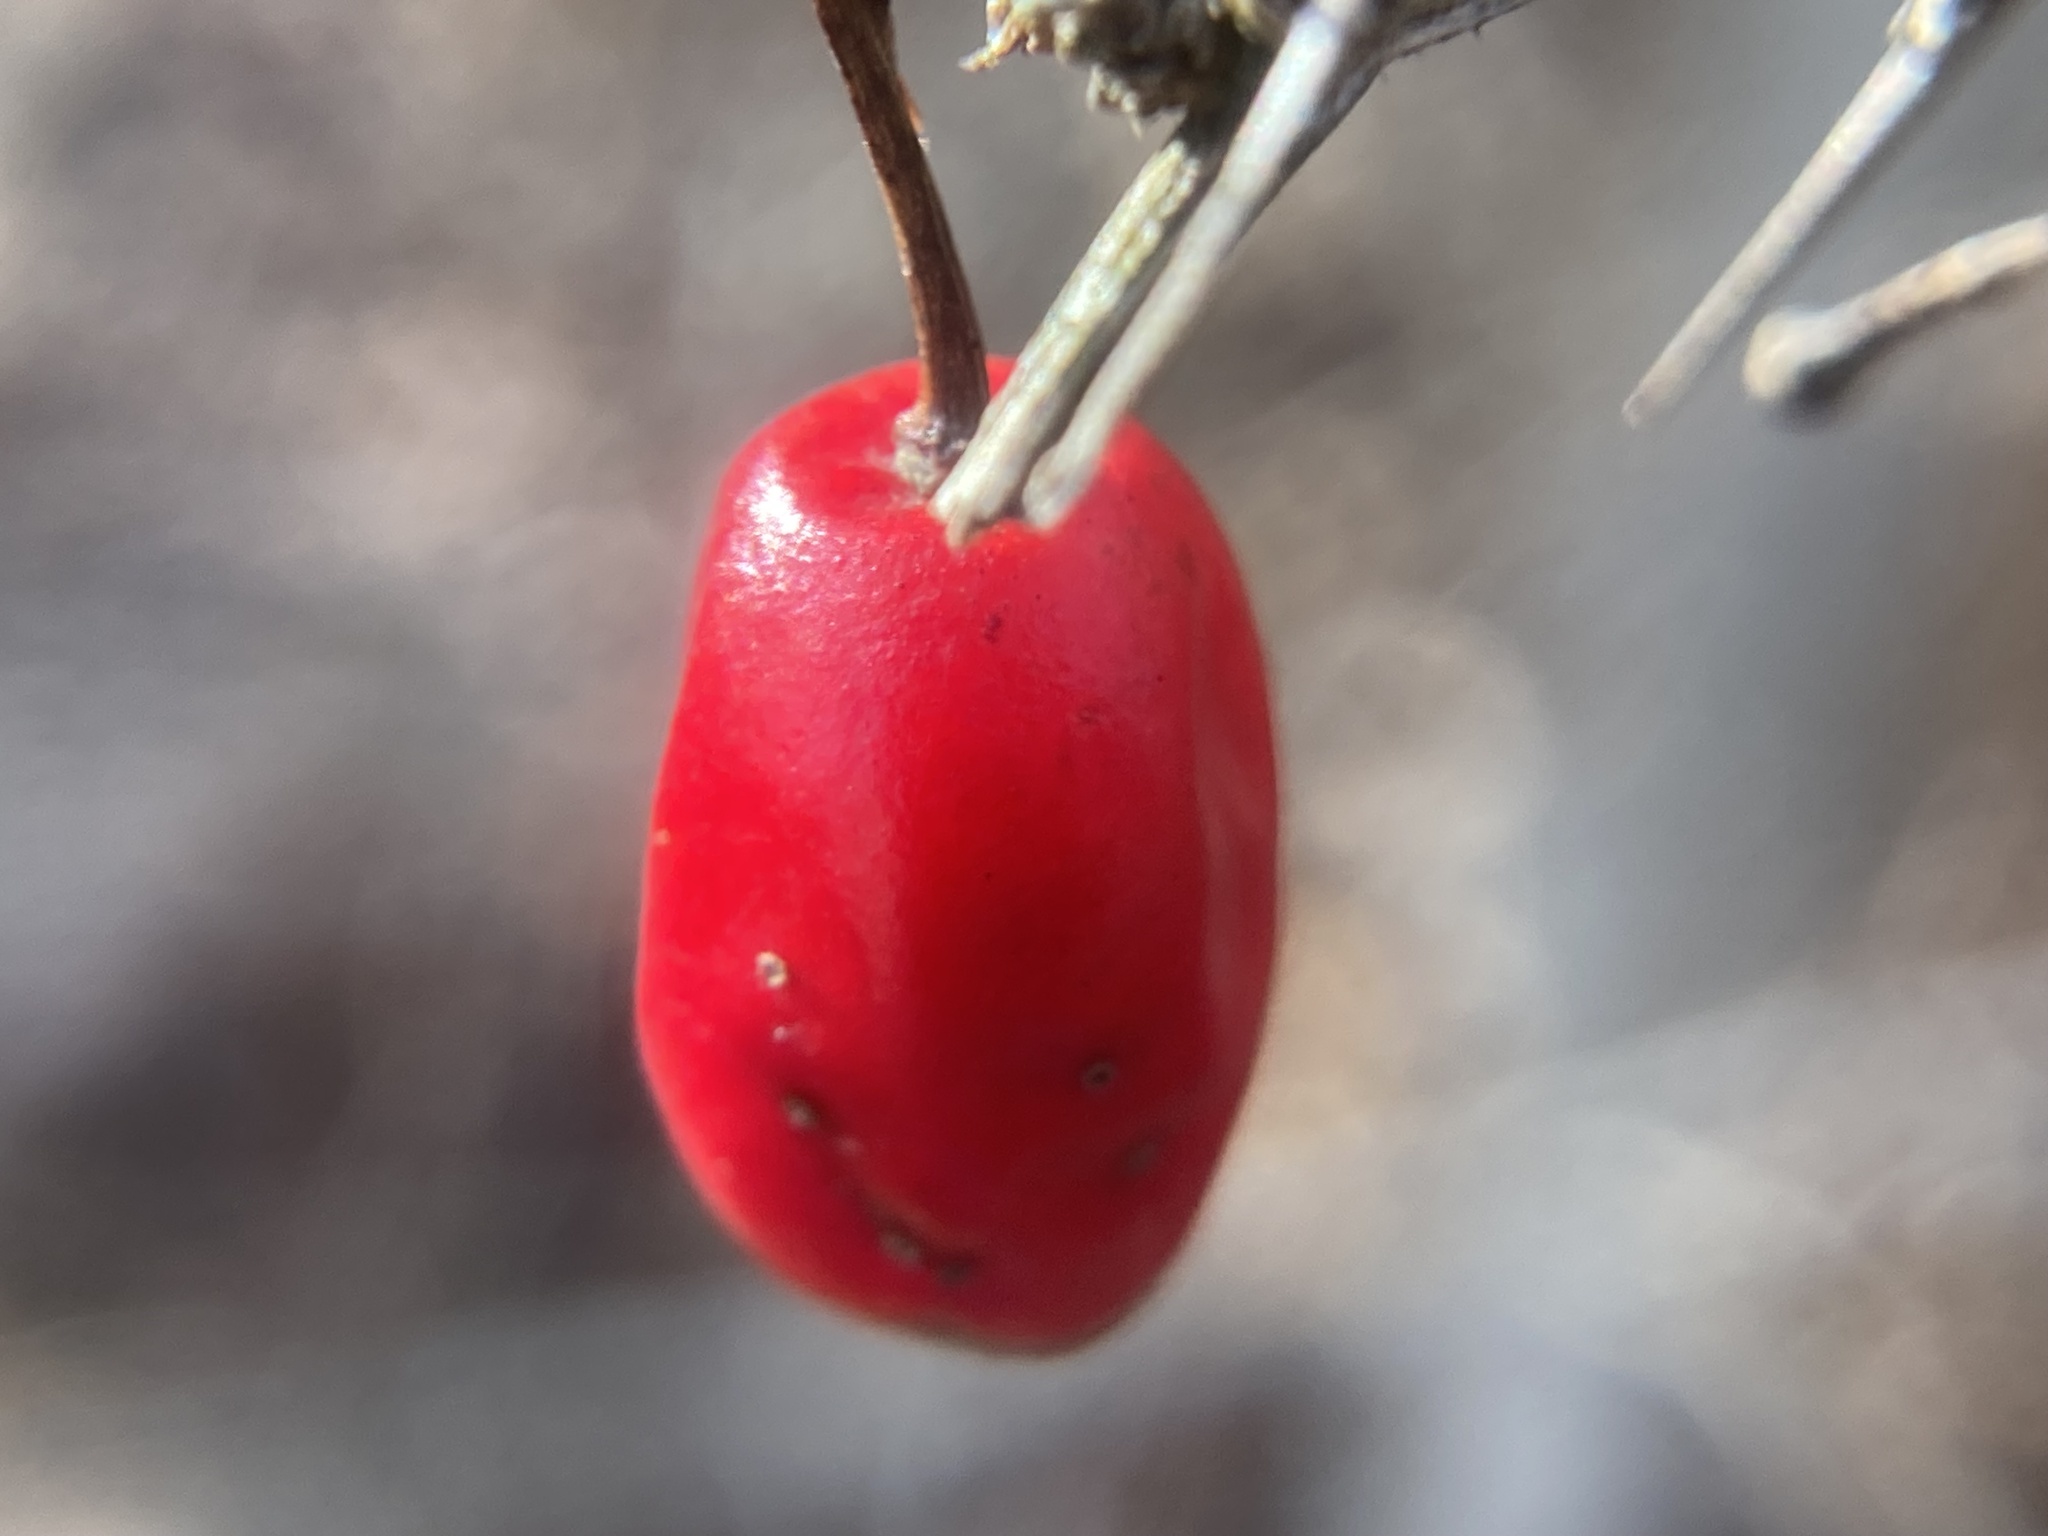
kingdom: Plantae
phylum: Tracheophyta
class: Magnoliopsida
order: Ranunculales
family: Berberidaceae
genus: Berberis
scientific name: Berberis thunbergii
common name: Japanese barberry
